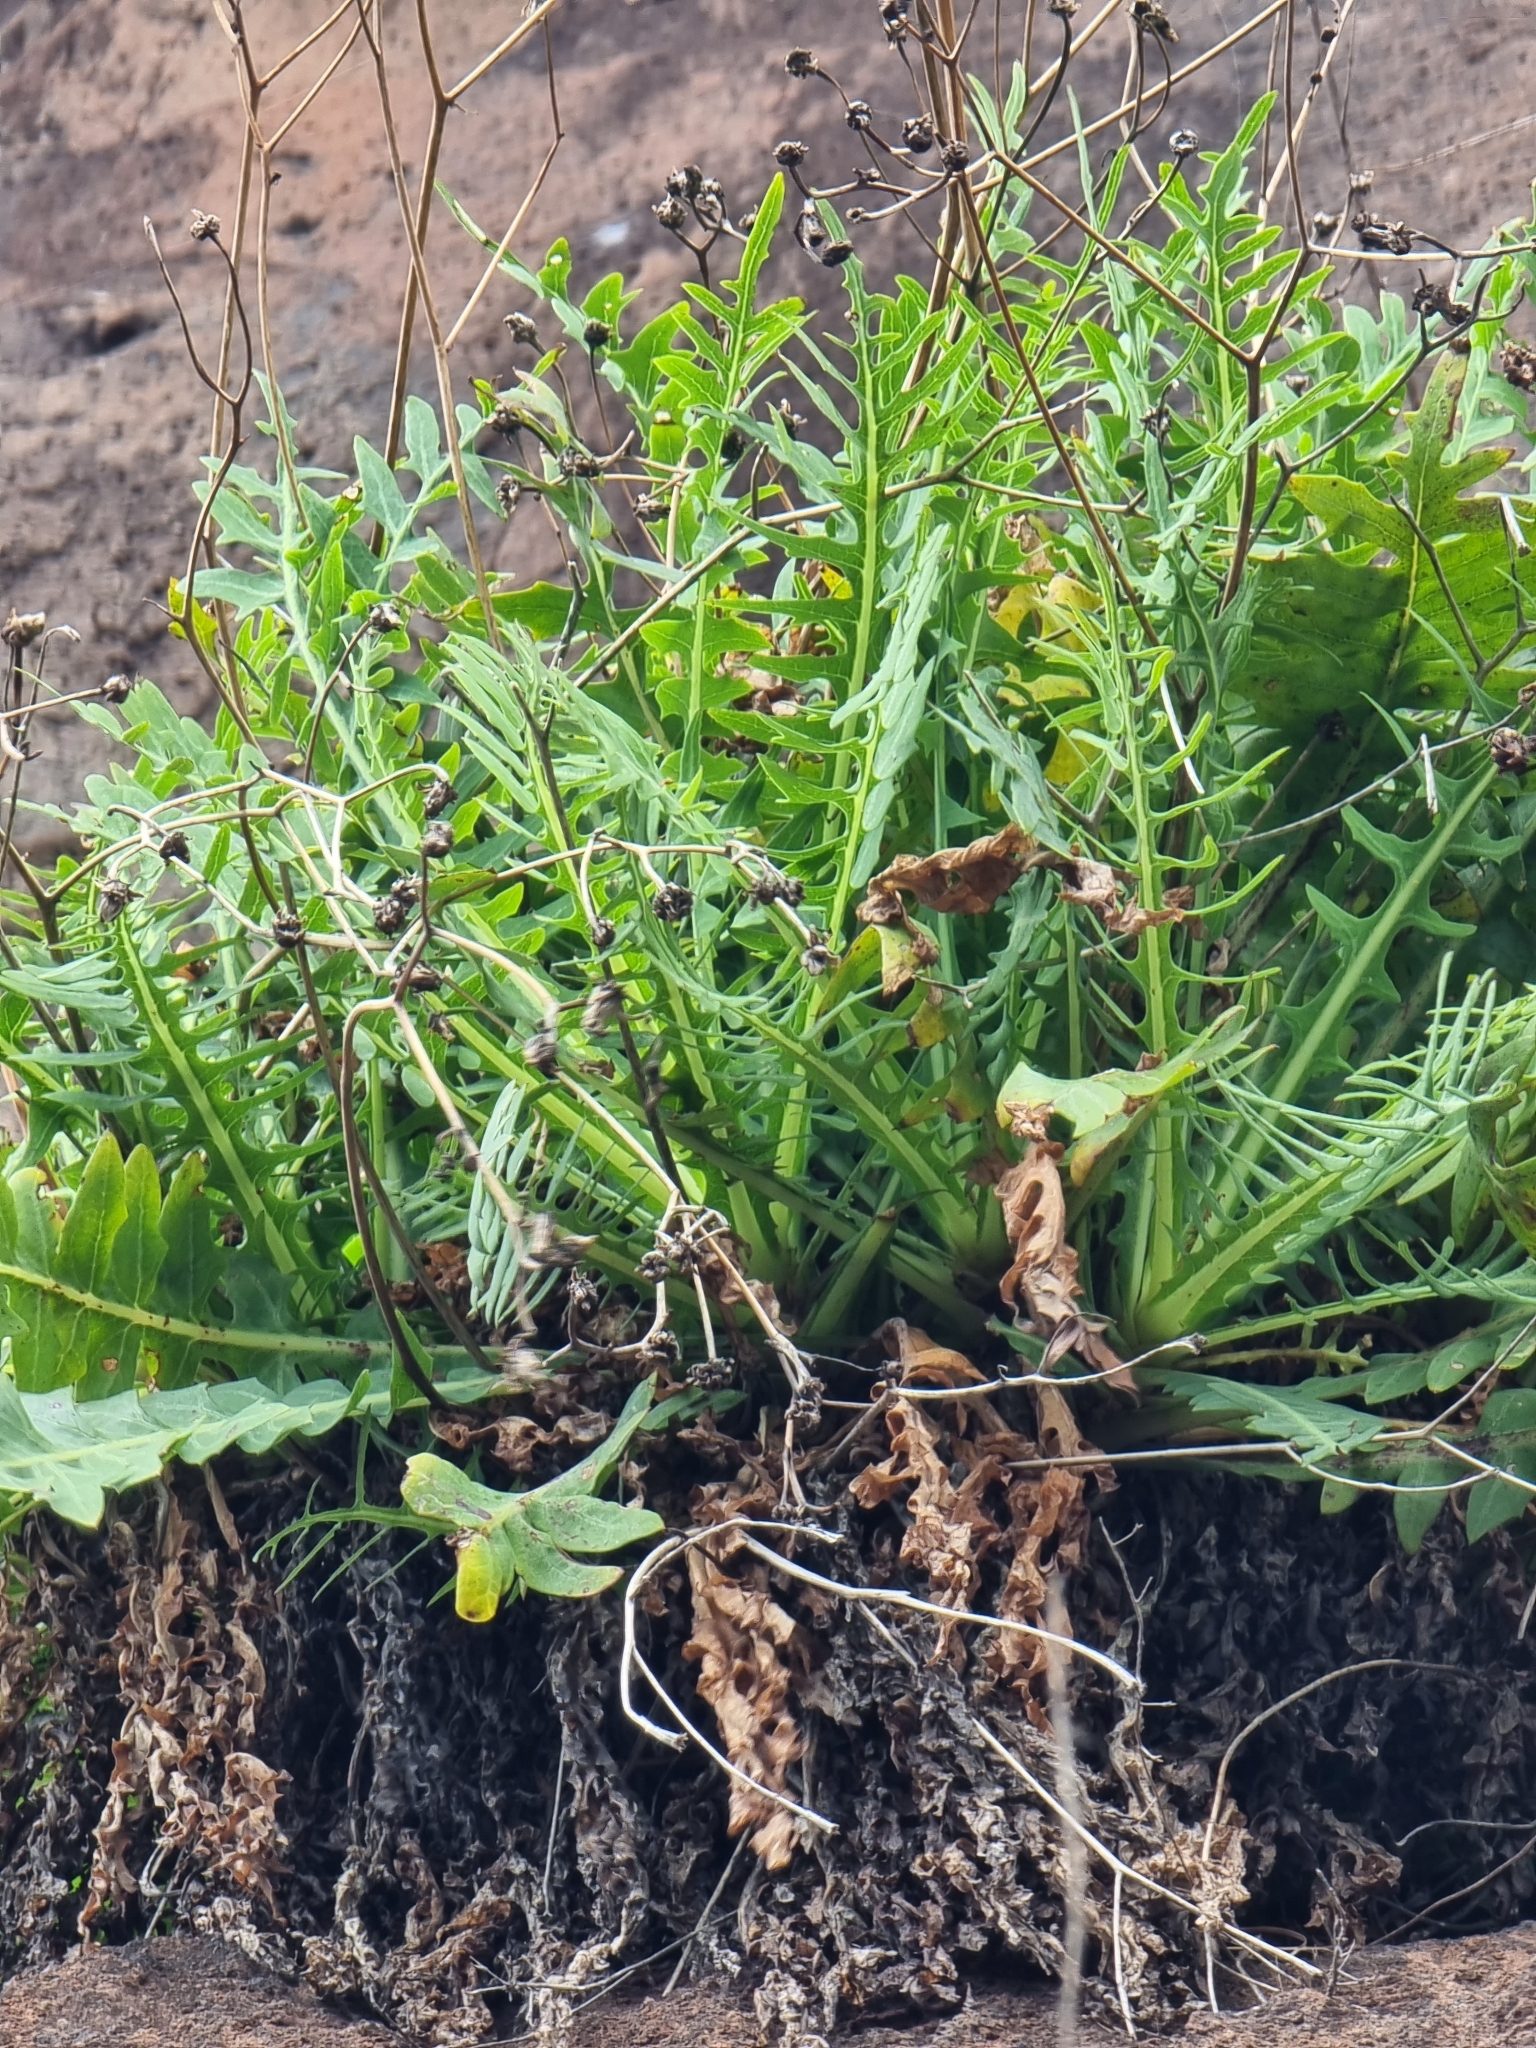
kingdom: Plantae
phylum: Tracheophyta
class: Magnoliopsida
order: Asterales
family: Asteraceae
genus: Sonchus
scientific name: Sonchus ustulatus
